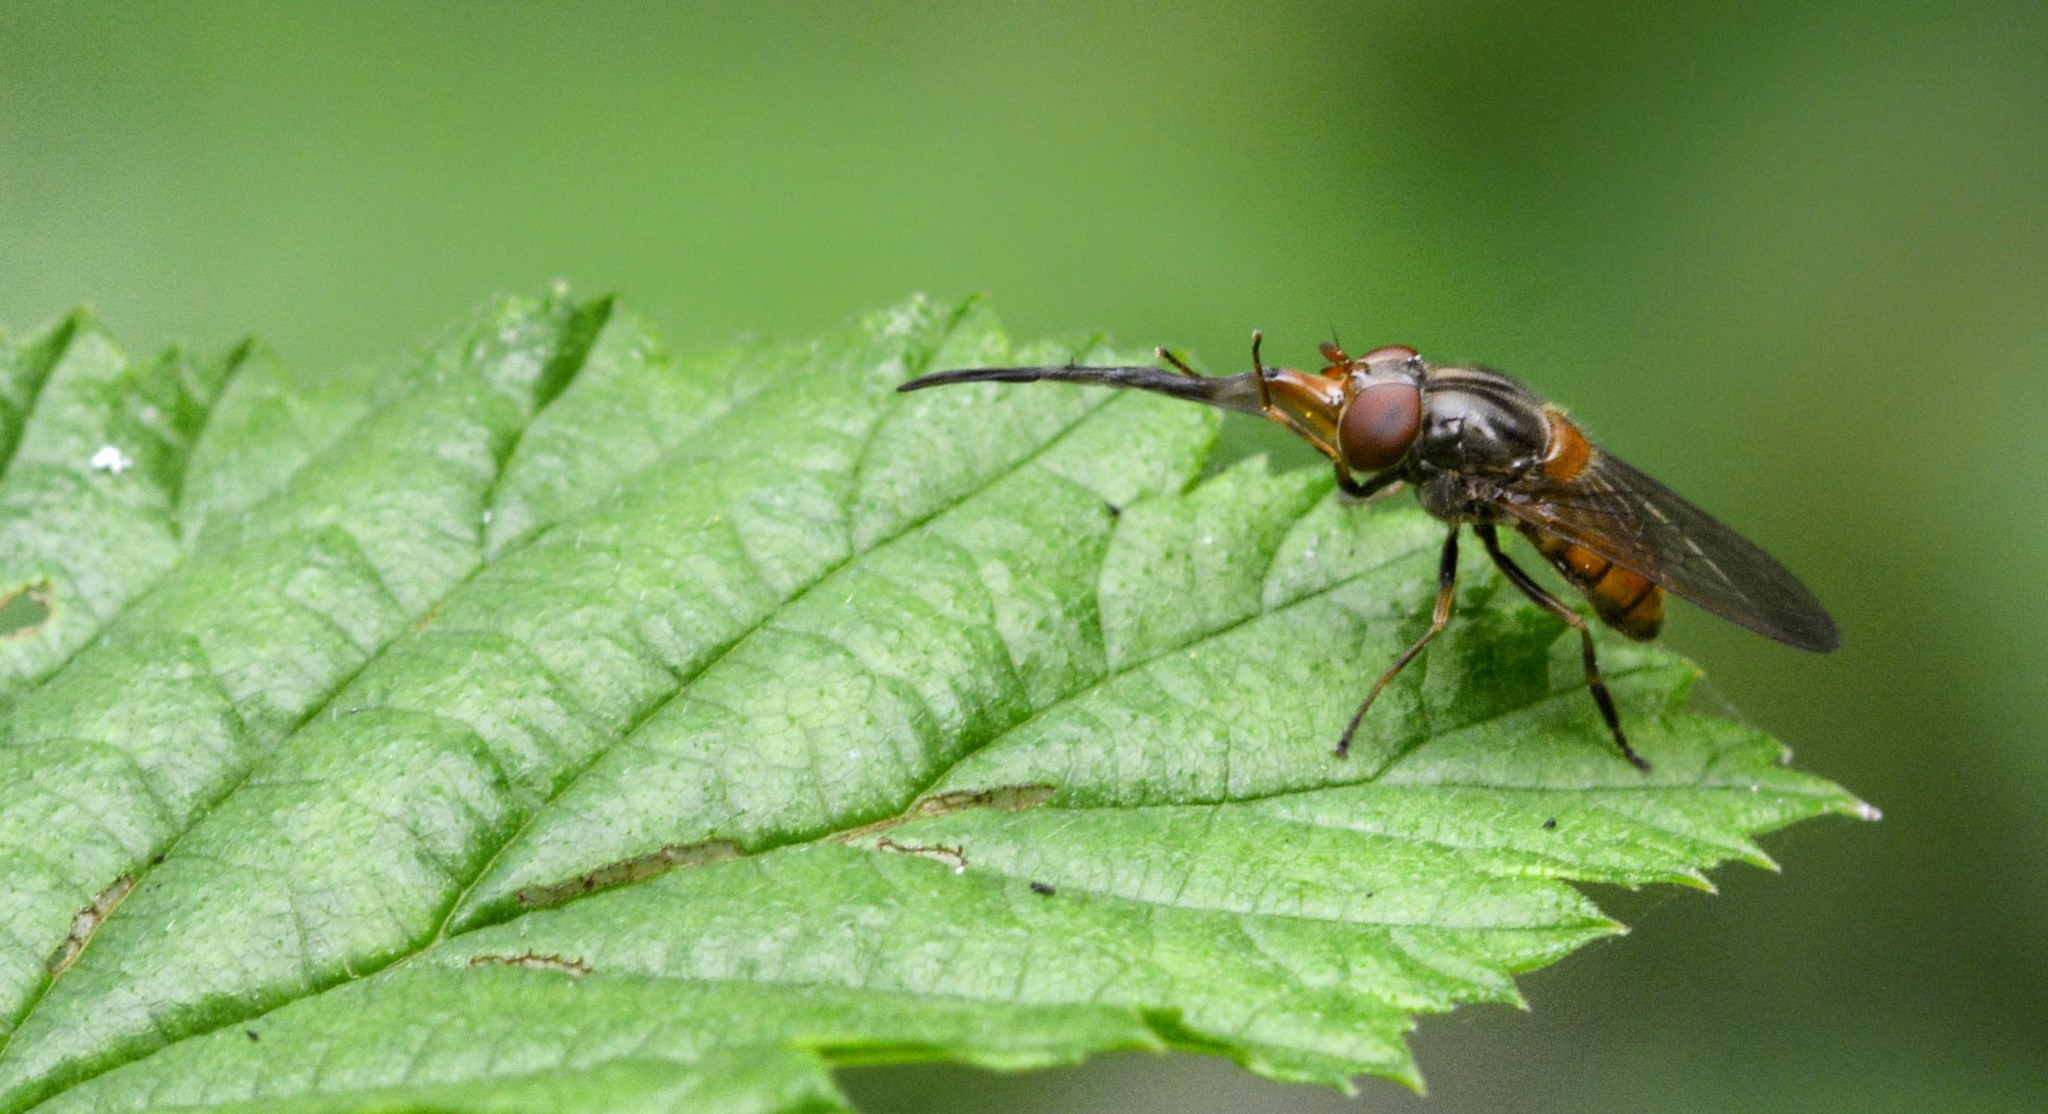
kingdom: Animalia
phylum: Arthropoda
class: Insecta
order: Diptera
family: Syrphidae
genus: Rhingia
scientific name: Rhingia campestris
